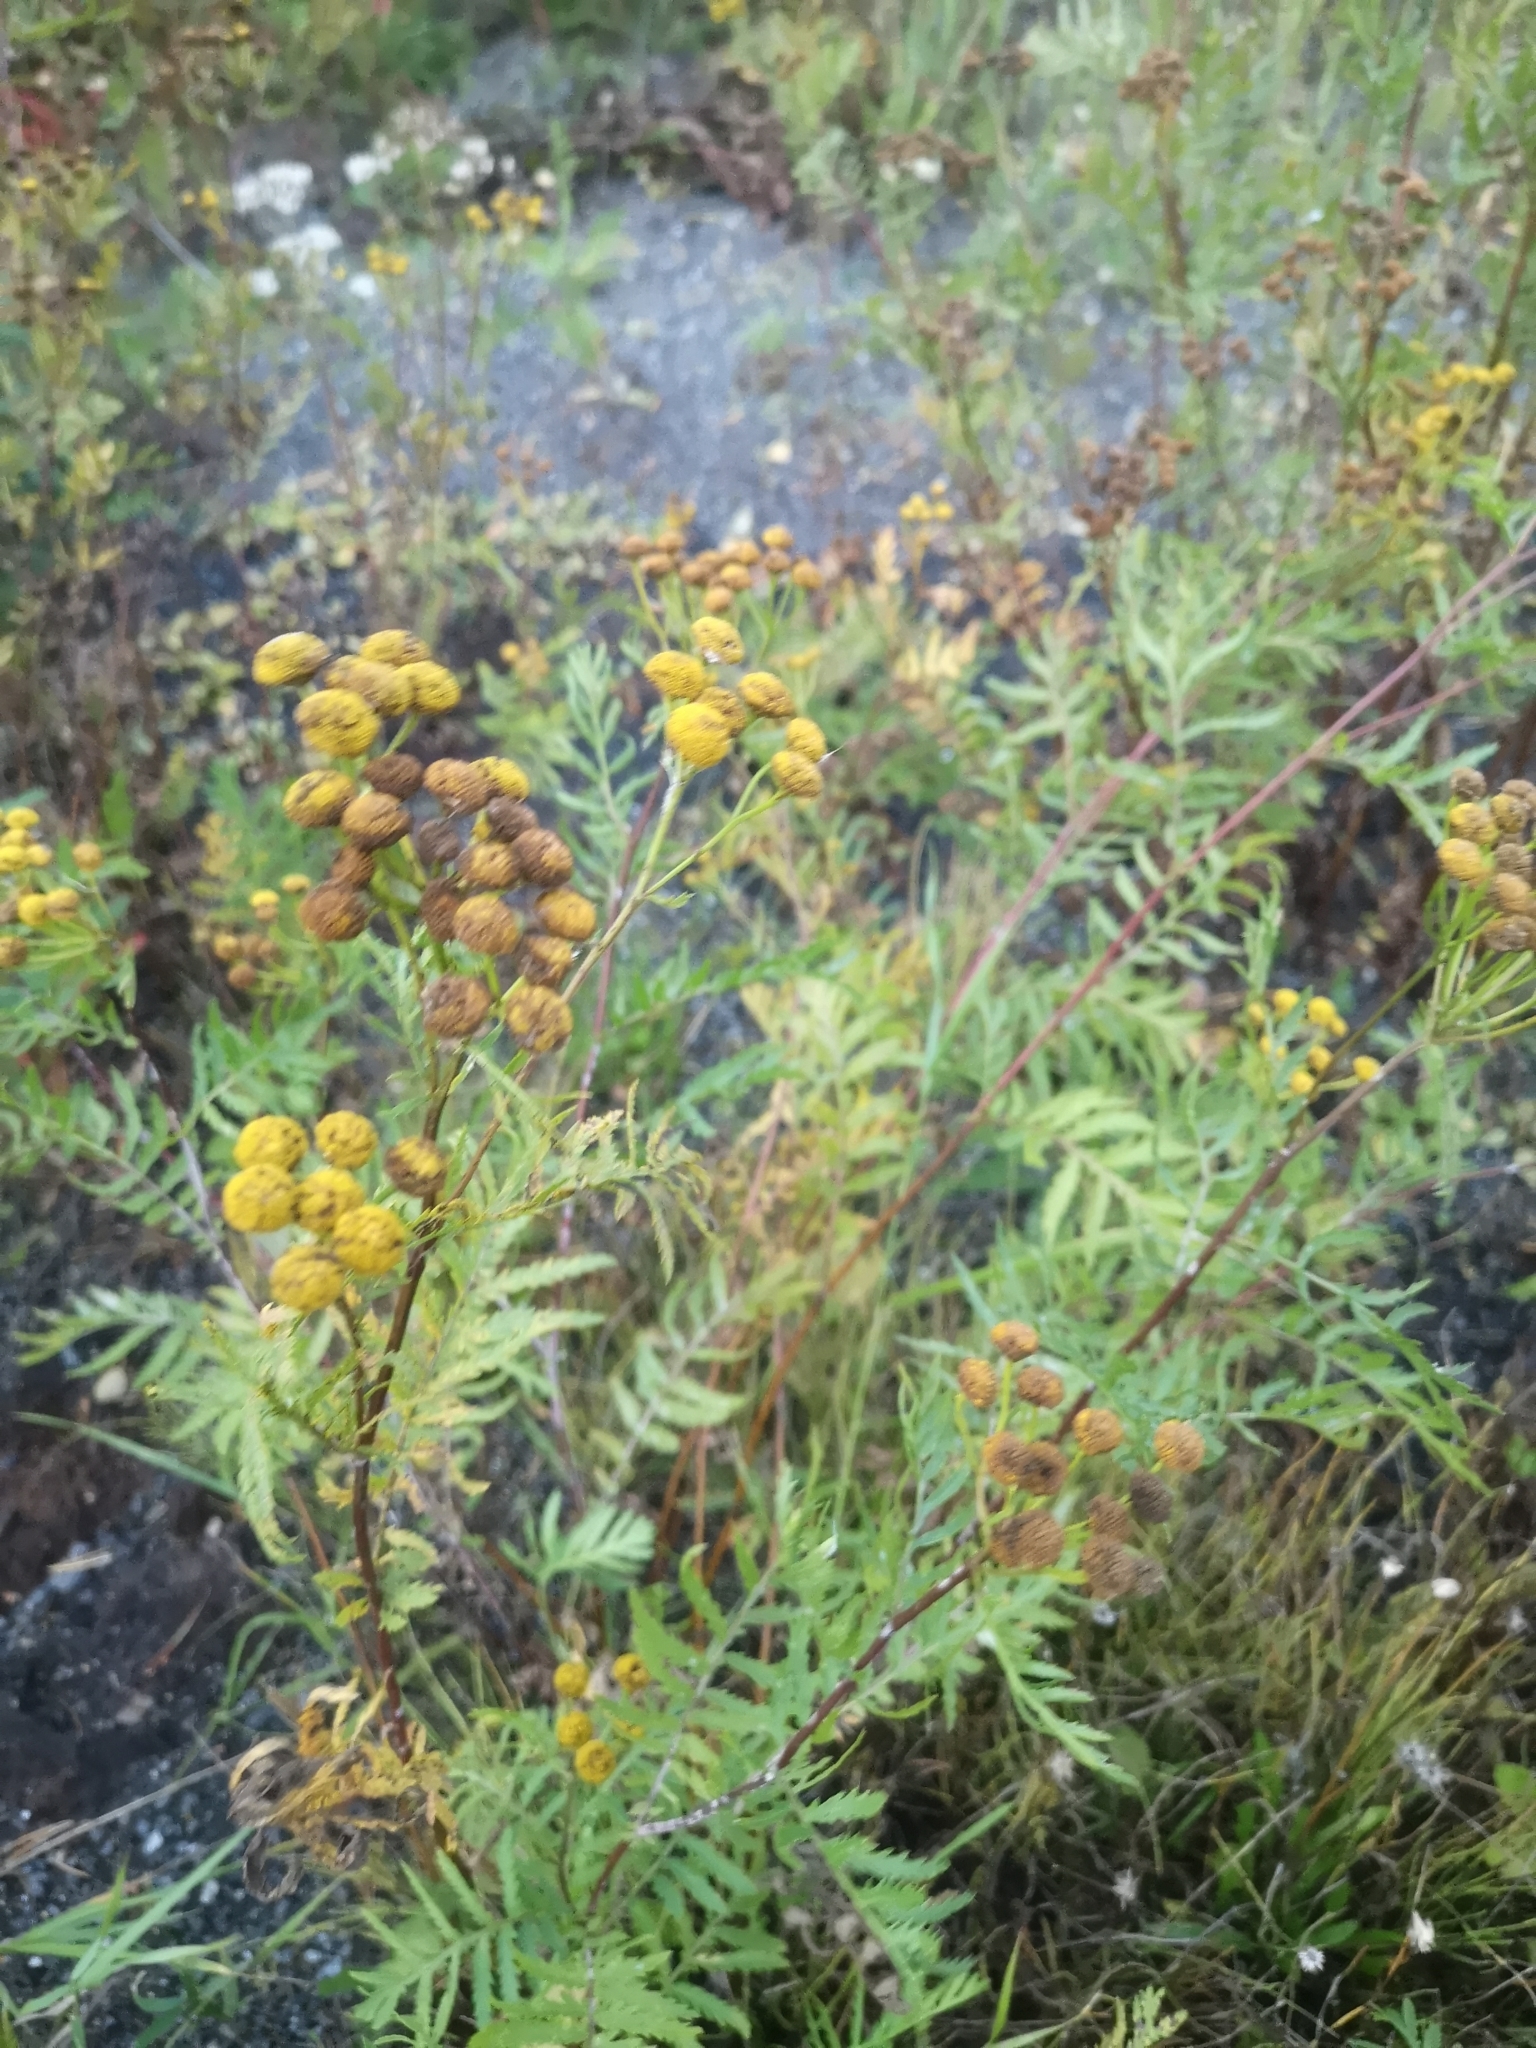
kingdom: Plantae
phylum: Tracheophyta
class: Magnoliopsida
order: Asterales
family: Asteraceae
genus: Tanacetum
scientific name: Tanacetum vulgare
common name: Common tansy
